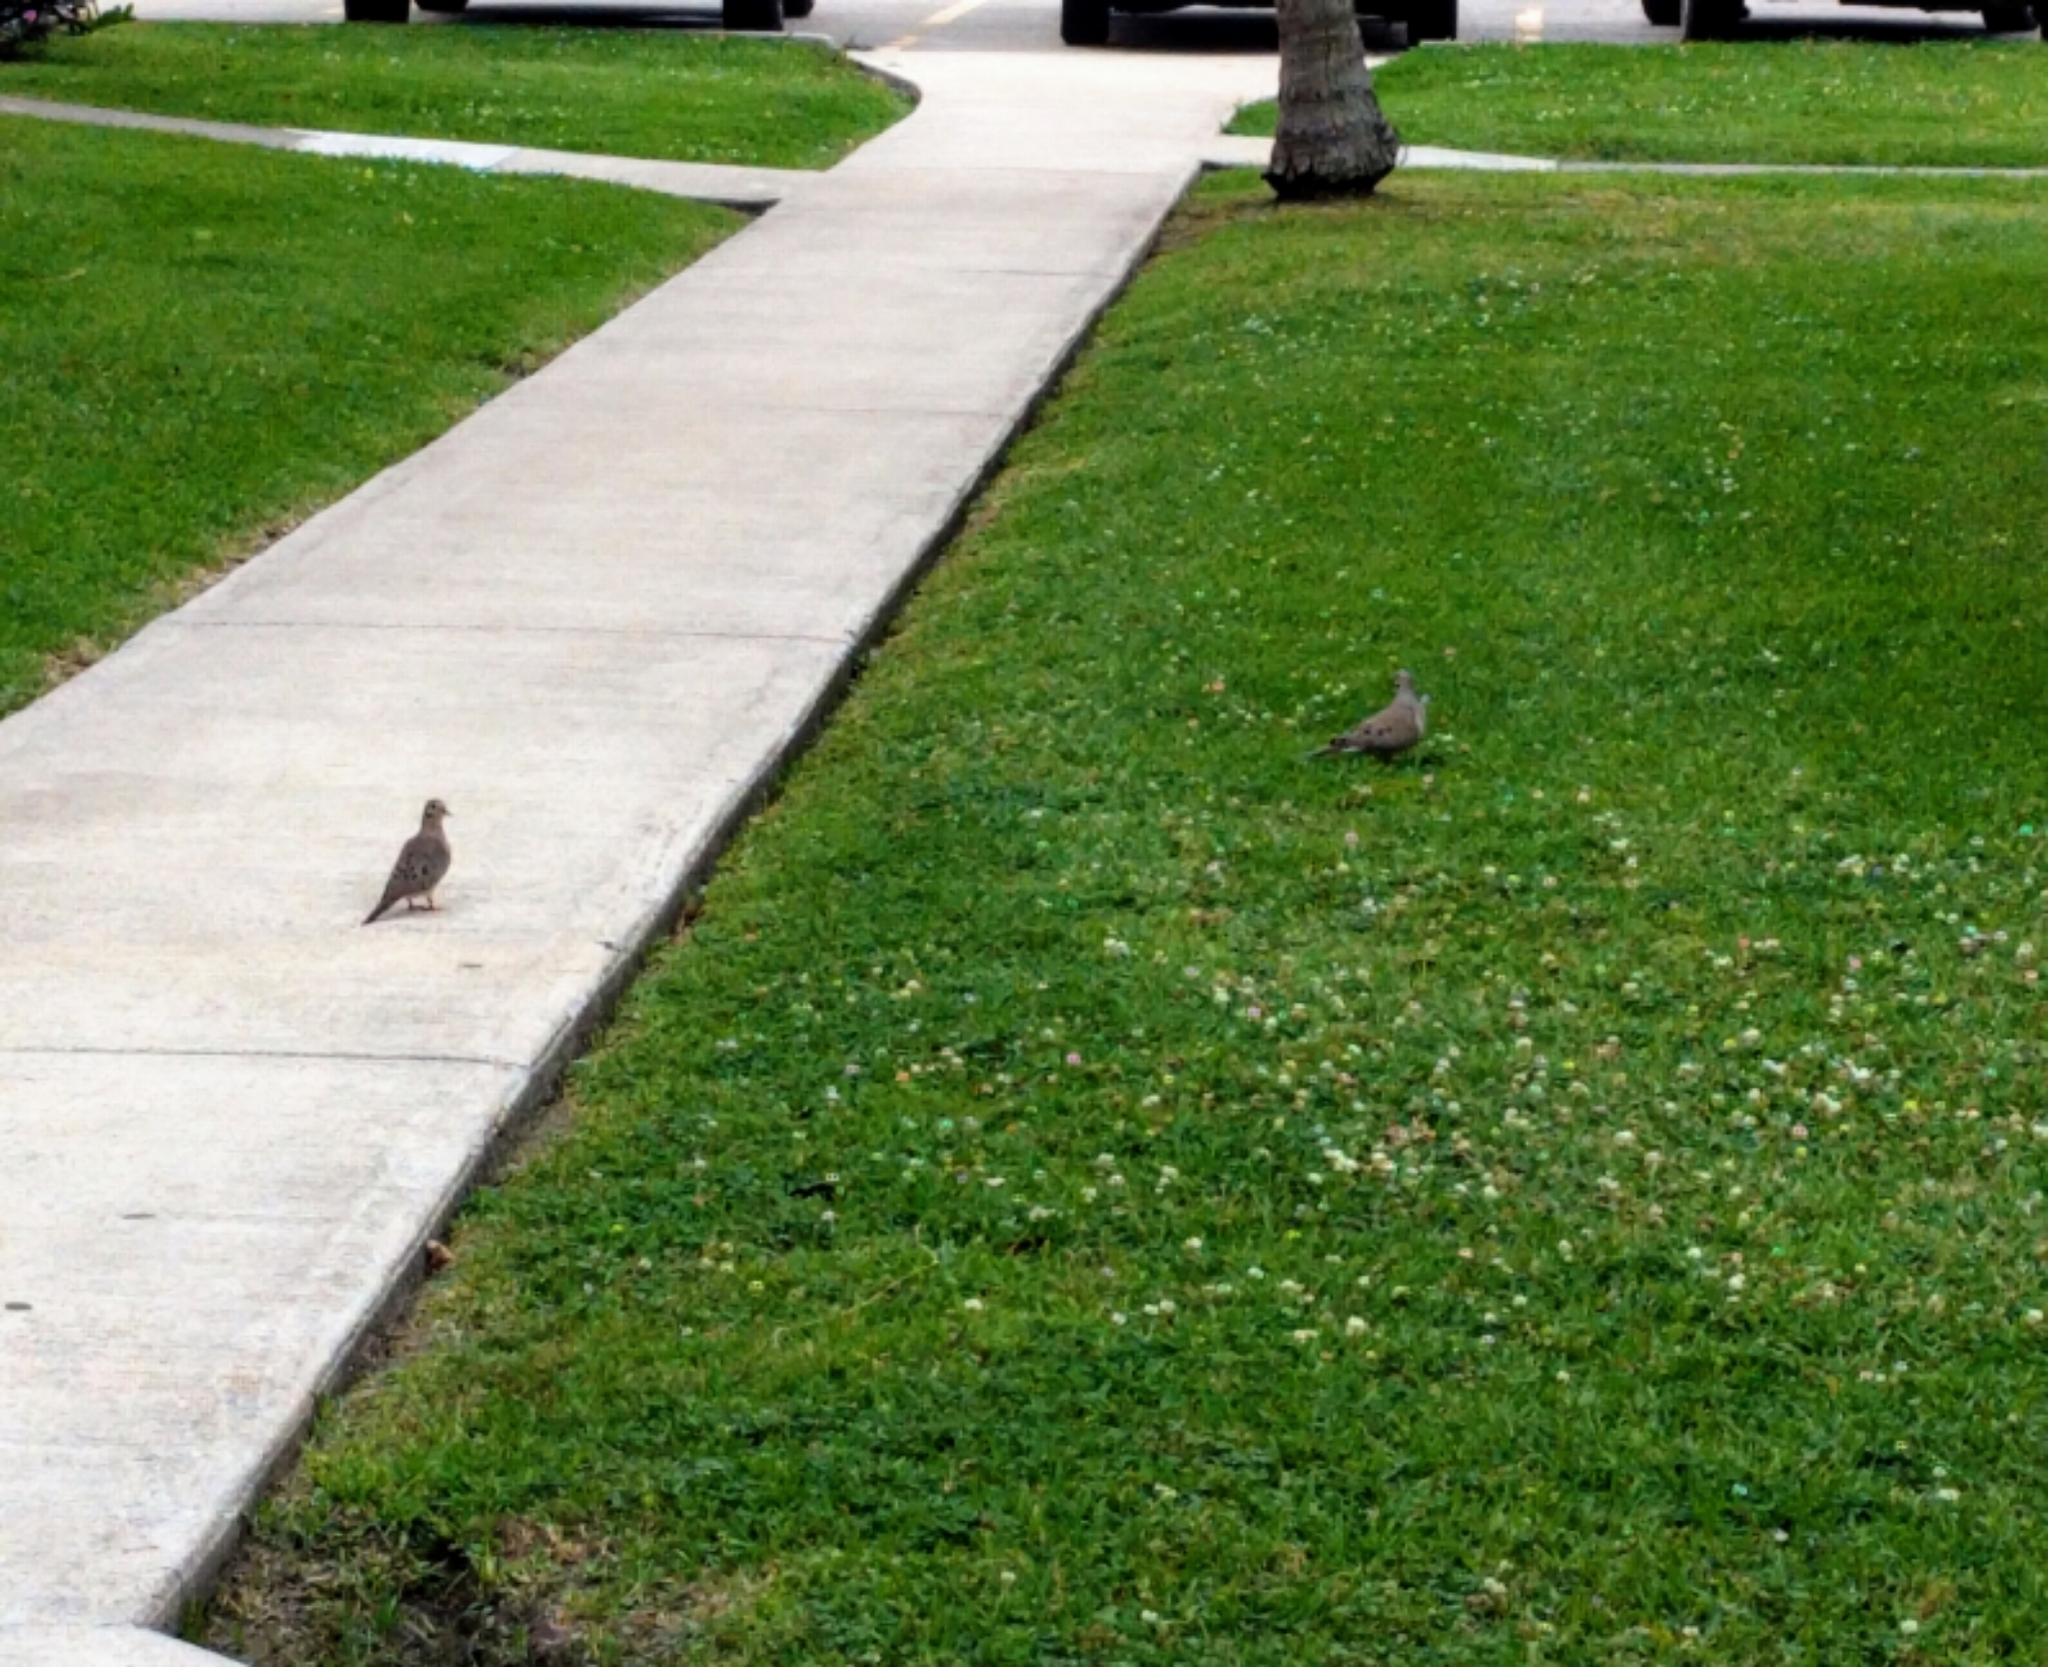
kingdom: Animalia
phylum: Chordata
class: Aves
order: Columbiformes
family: Columbidae
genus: Zenaida
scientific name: Zenaida macroura
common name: Mourning dove
